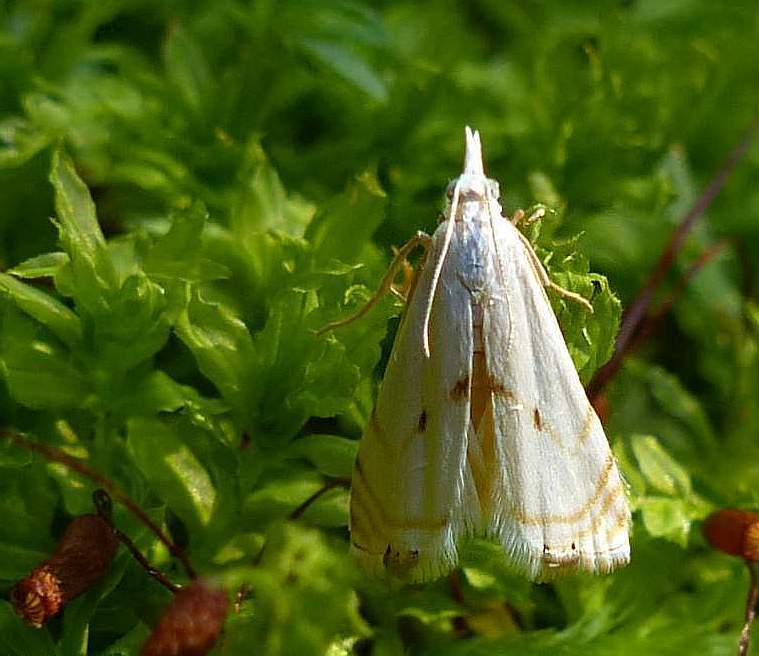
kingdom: Animalia
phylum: Arthropoda
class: Insecta
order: Lepidoptera
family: Crambidae
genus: Microcrambus
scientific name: Microcrambus biguttellus
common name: Gold-stripe grass-veneer moth
